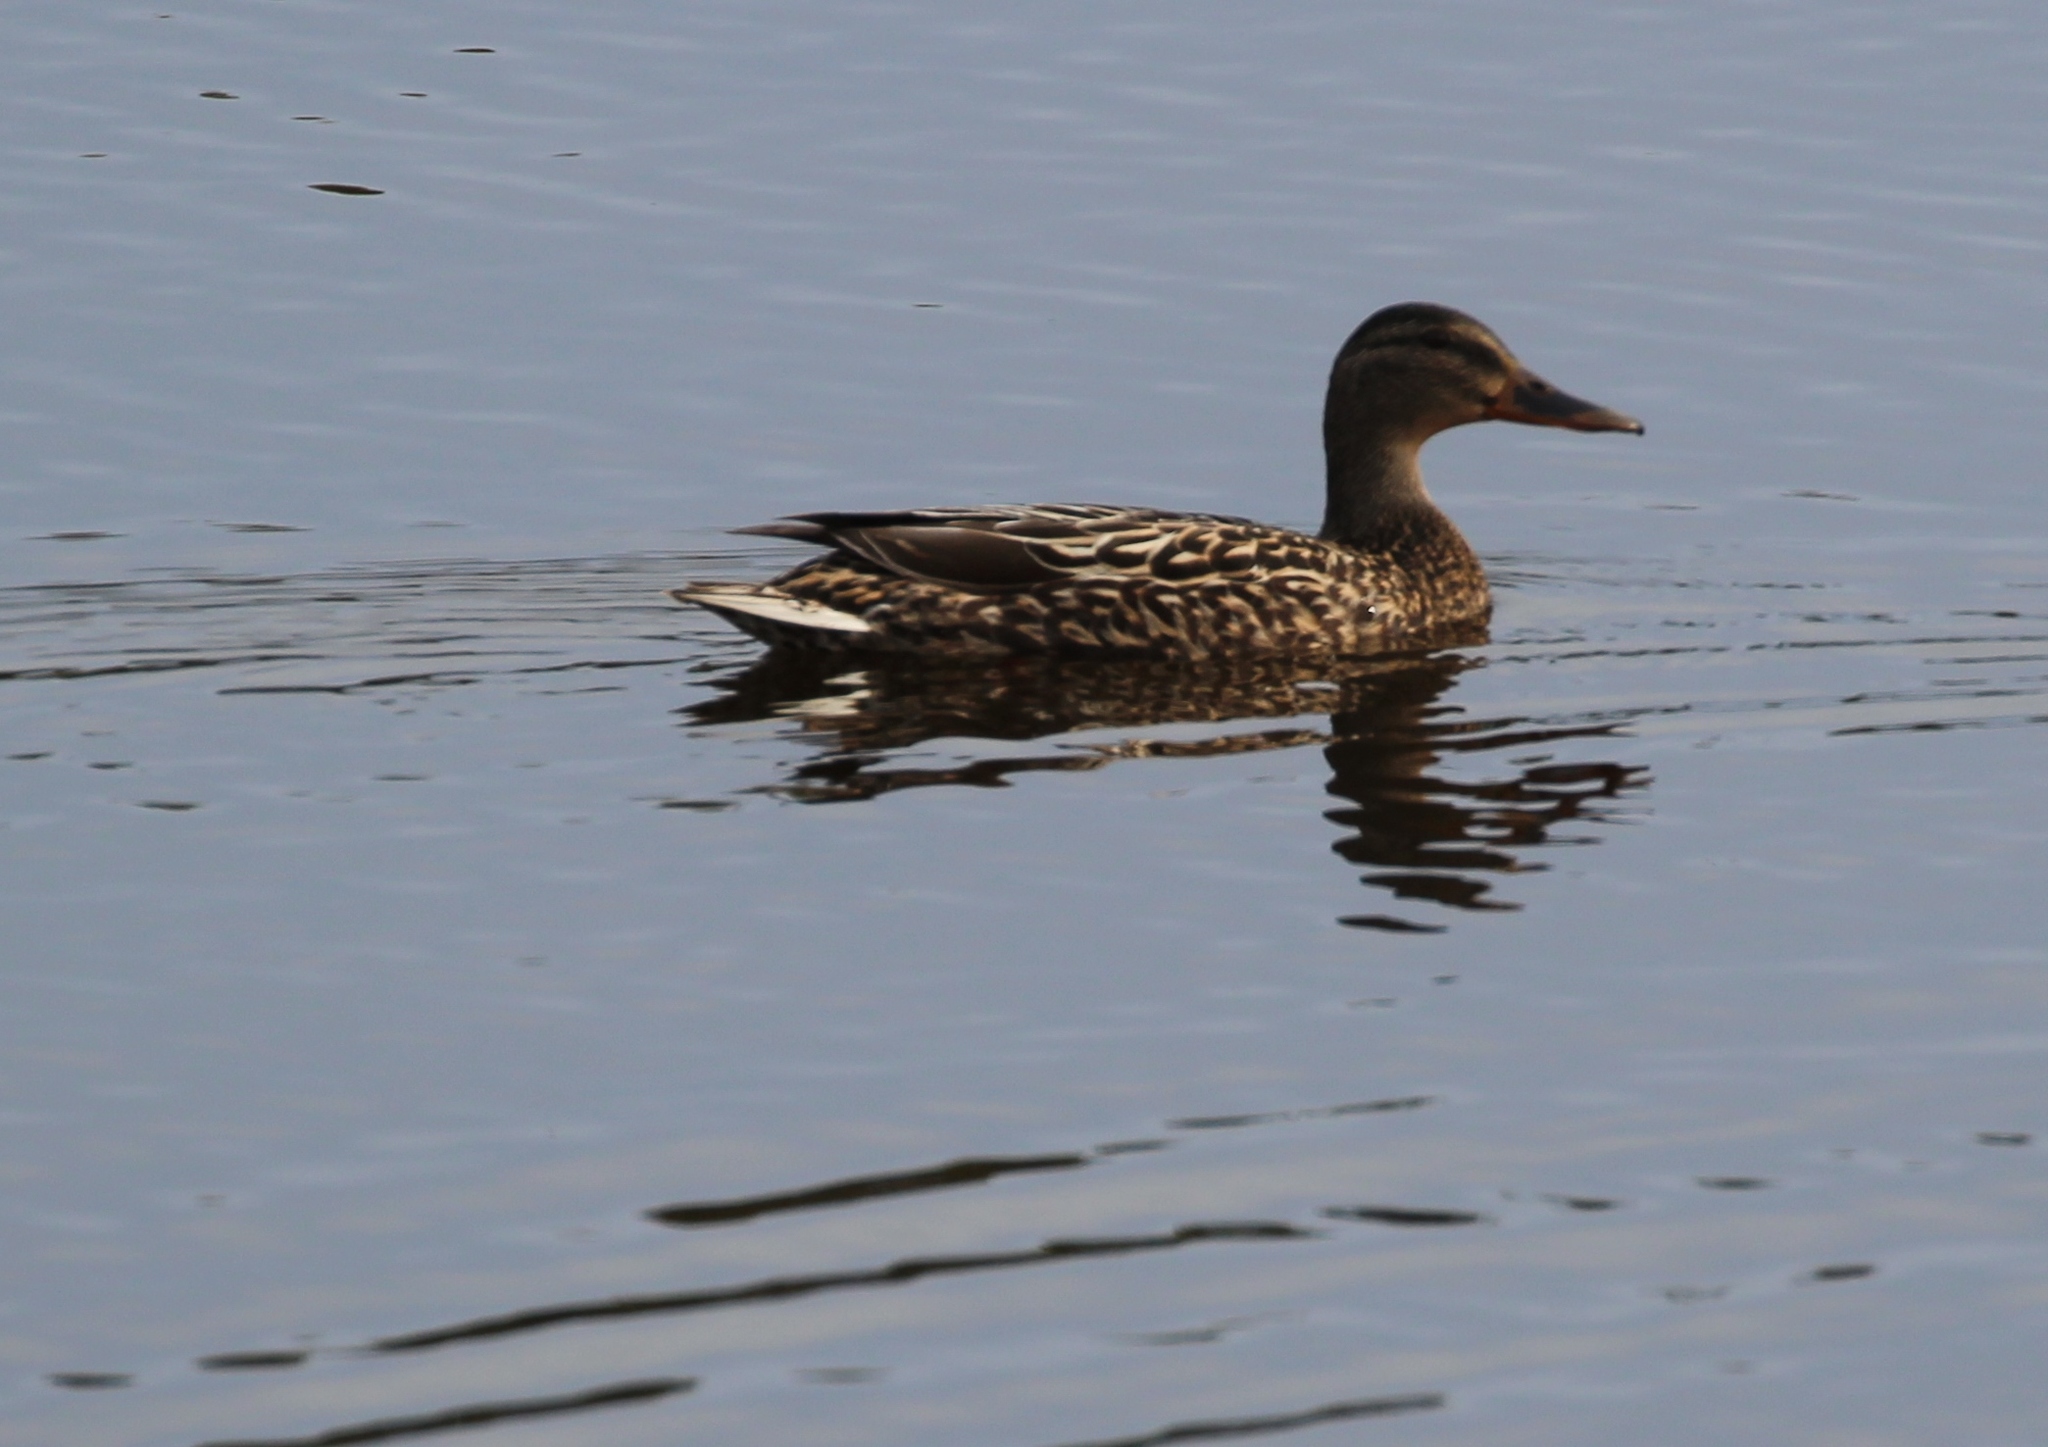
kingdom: Animalia
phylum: Chordata
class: Aves
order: Anseriformes
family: Anatidae
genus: Anas
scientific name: Anas platyrhynchos
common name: Mallard
